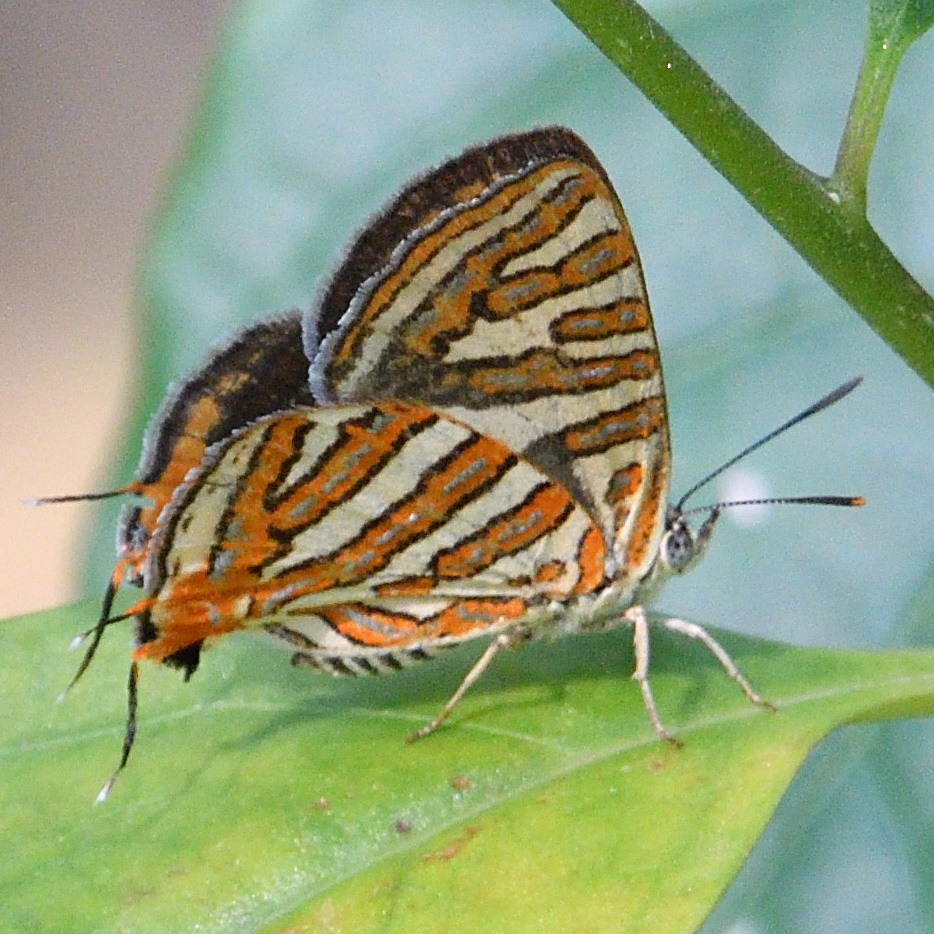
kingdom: Animalia
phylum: Arthropoda
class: Insecta
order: Lepidoptera
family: Lycaenidae
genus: Cigaritis
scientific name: Cigaritis vulcanus
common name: Common silverline
